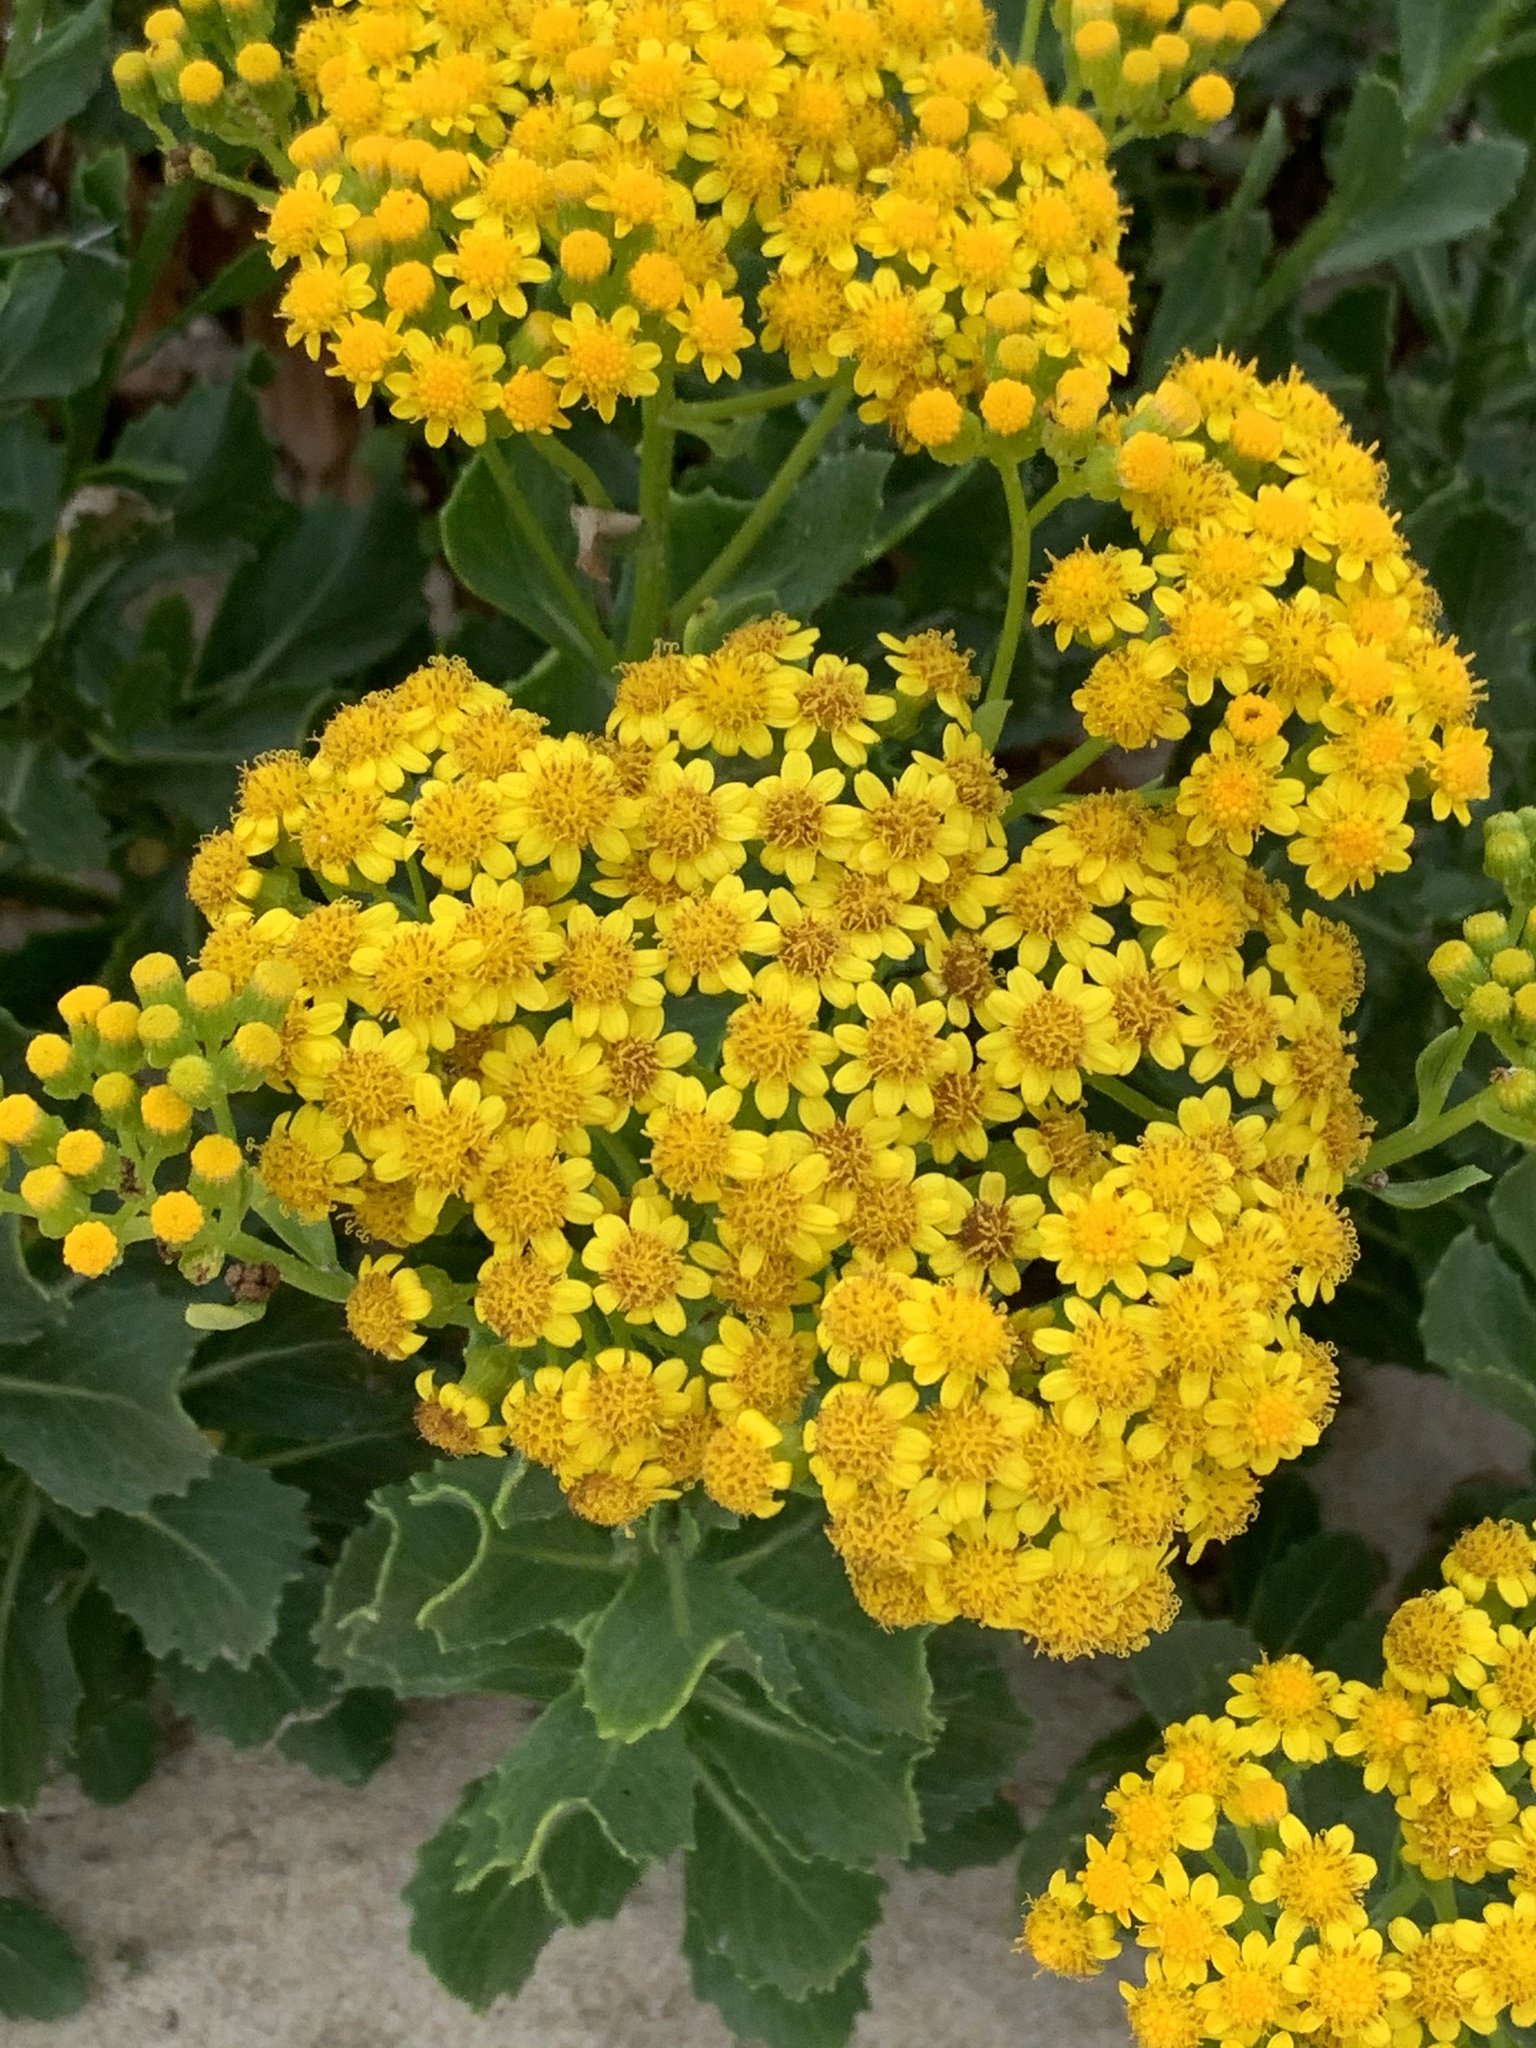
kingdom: Plantae
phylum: Tracheophyta
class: Magnoliopsida
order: Asterales
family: Asteraceae
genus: Senecio
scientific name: Senecio halimifolius
